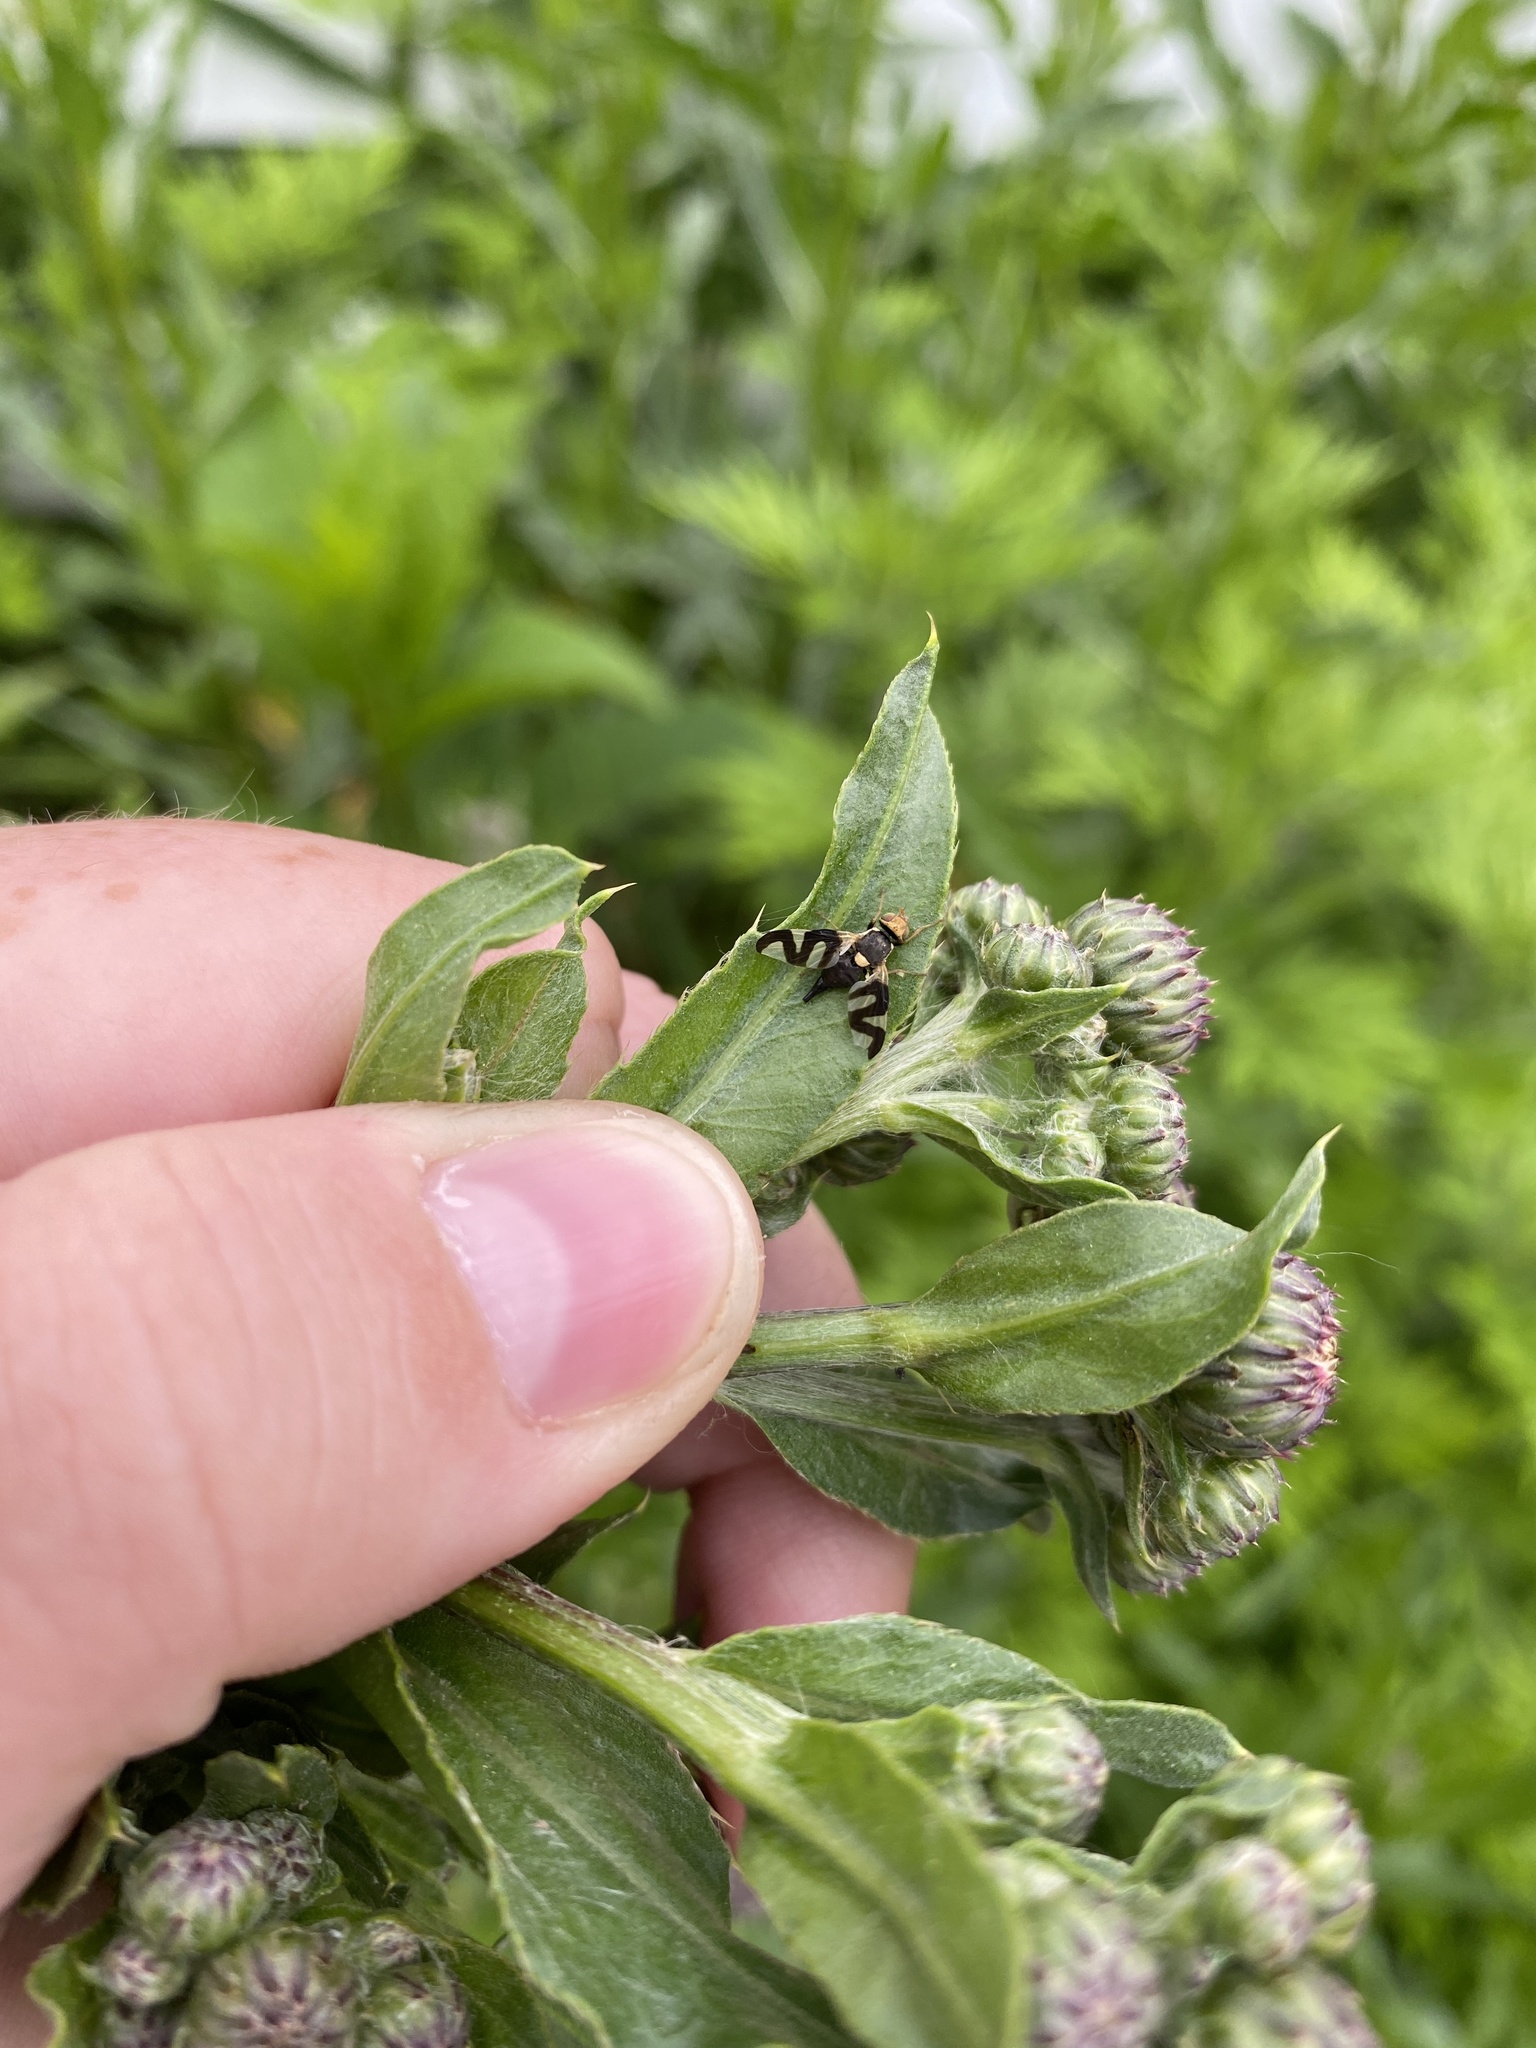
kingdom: Animalia
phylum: Arthropoda
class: Insecta
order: Diptera
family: Tephritidae
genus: Urophora
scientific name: Urophora cardui
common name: Fruit fly
